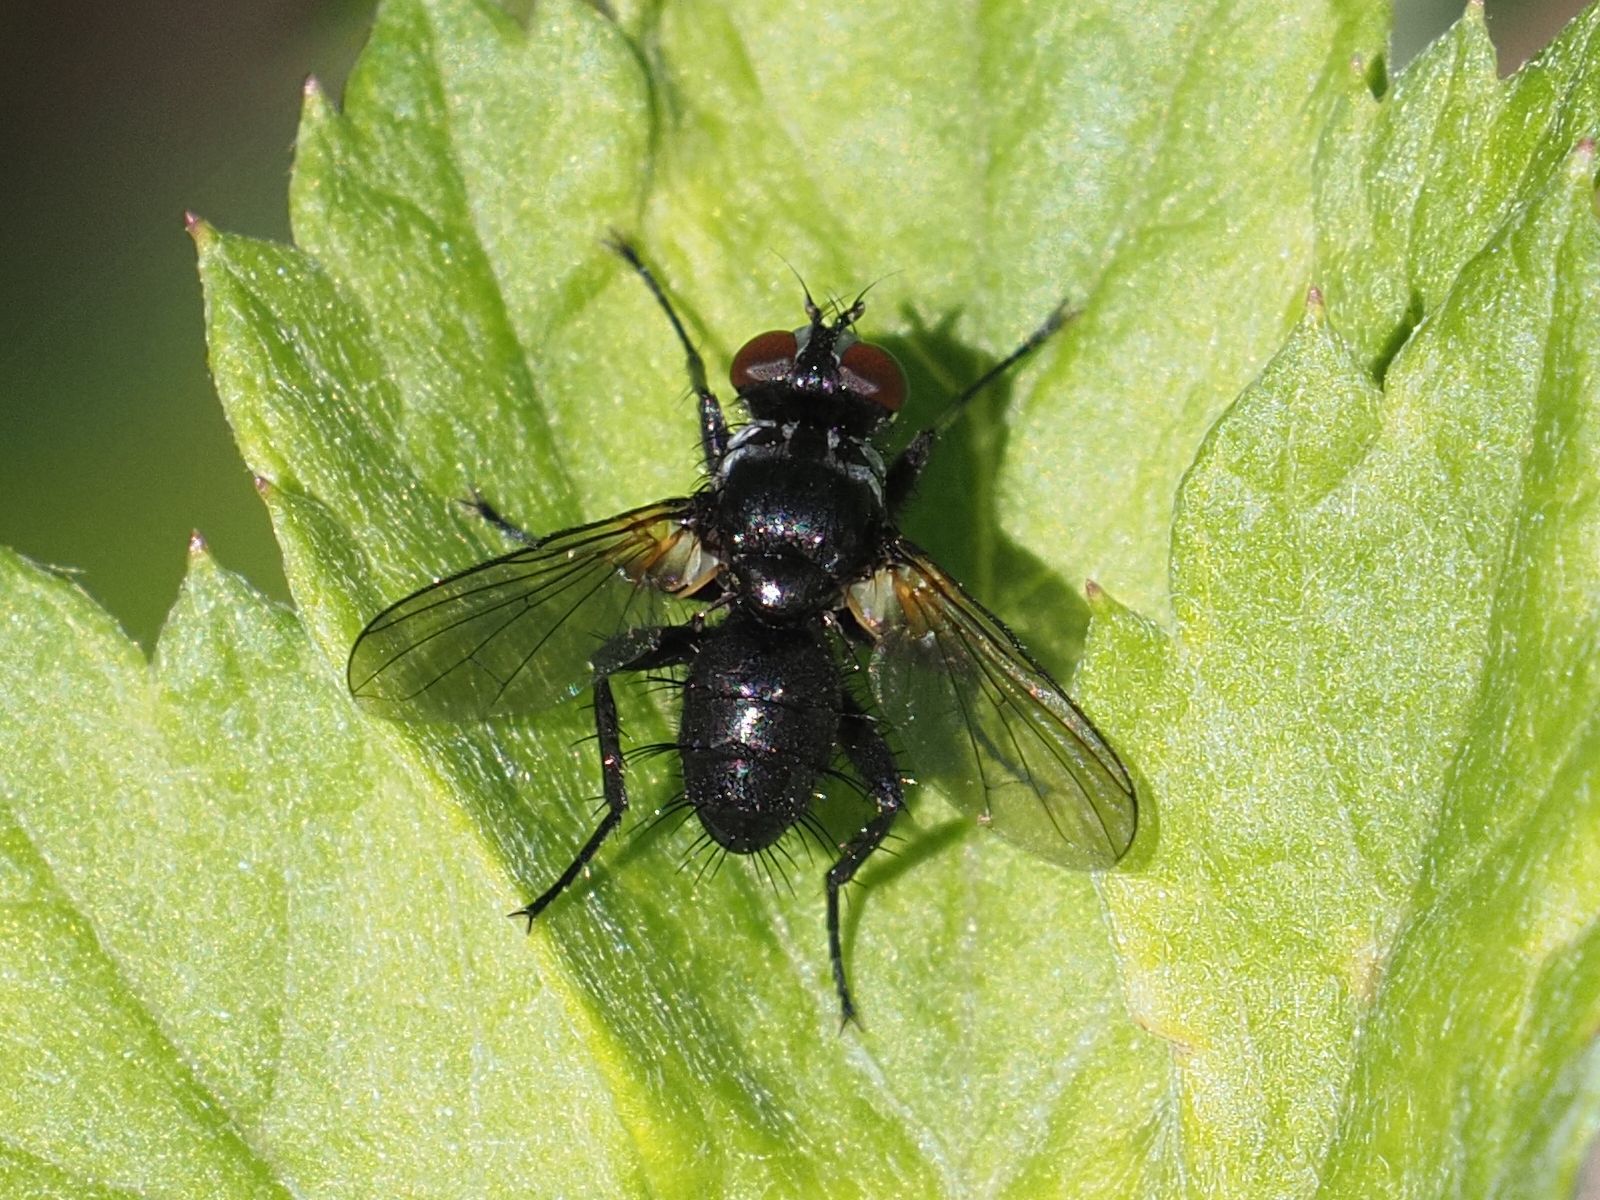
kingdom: Animalia
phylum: Arthropoda
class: Insecta
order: Diptera
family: Tachinidae
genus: Phania
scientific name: Phania funesta
